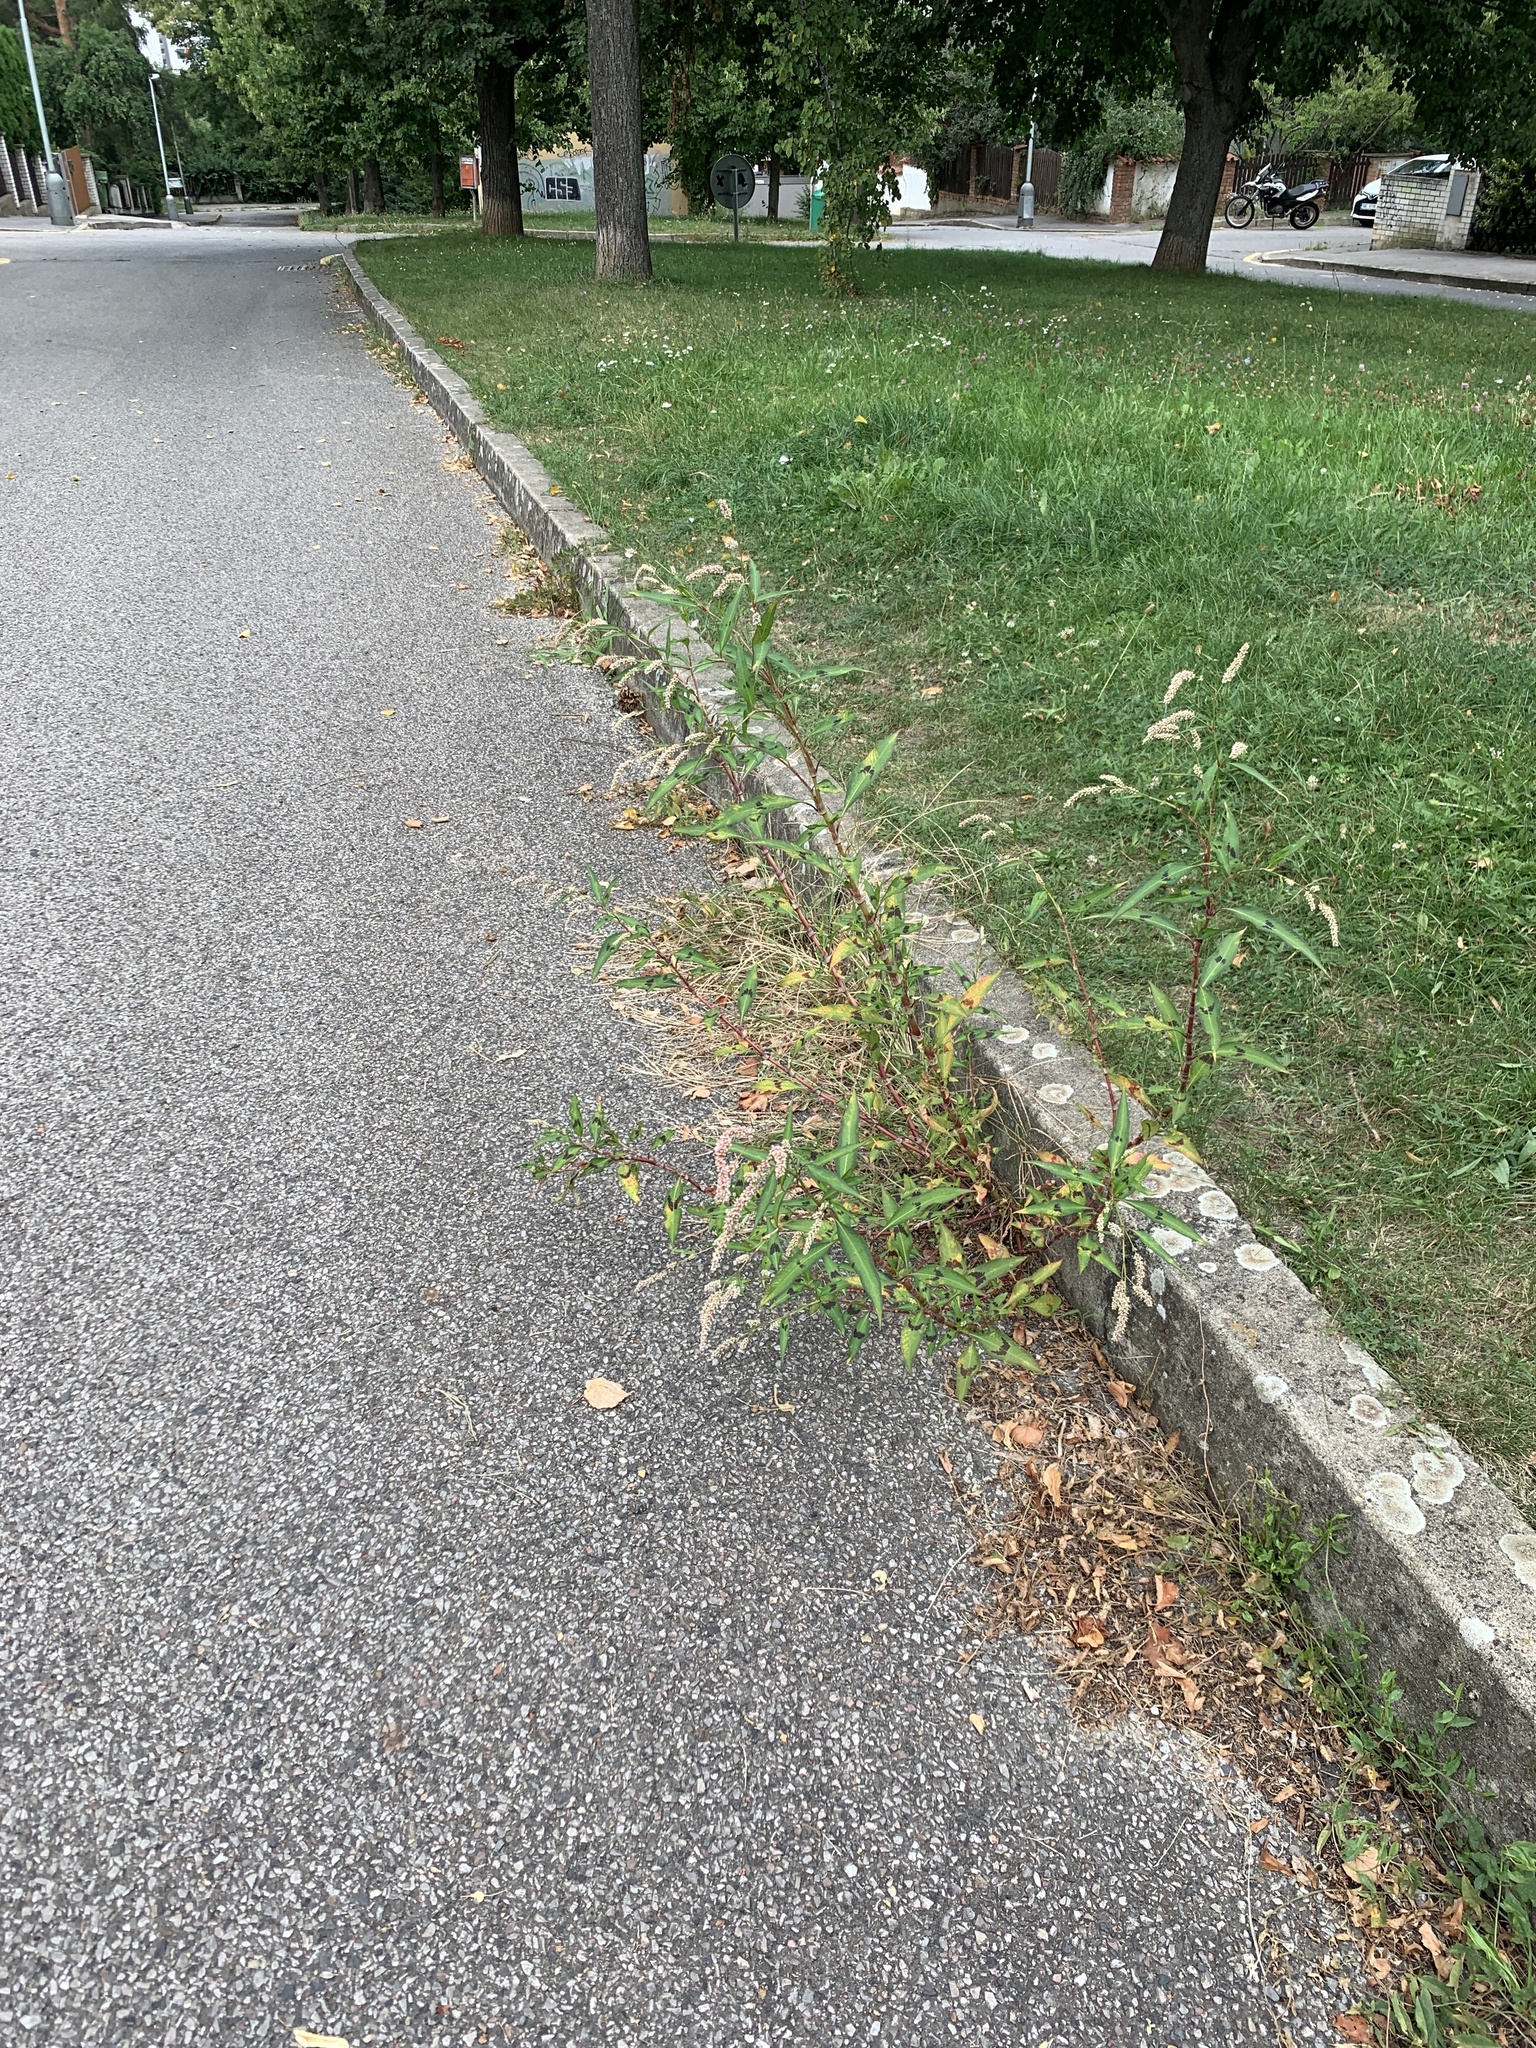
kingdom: Plantae
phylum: Tracheophyta
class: Magnoliopsida
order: Caryophyllales
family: Polygonaceae
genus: Persicaria
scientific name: Persicaria lapathifolia
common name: Curlytop knotweed
